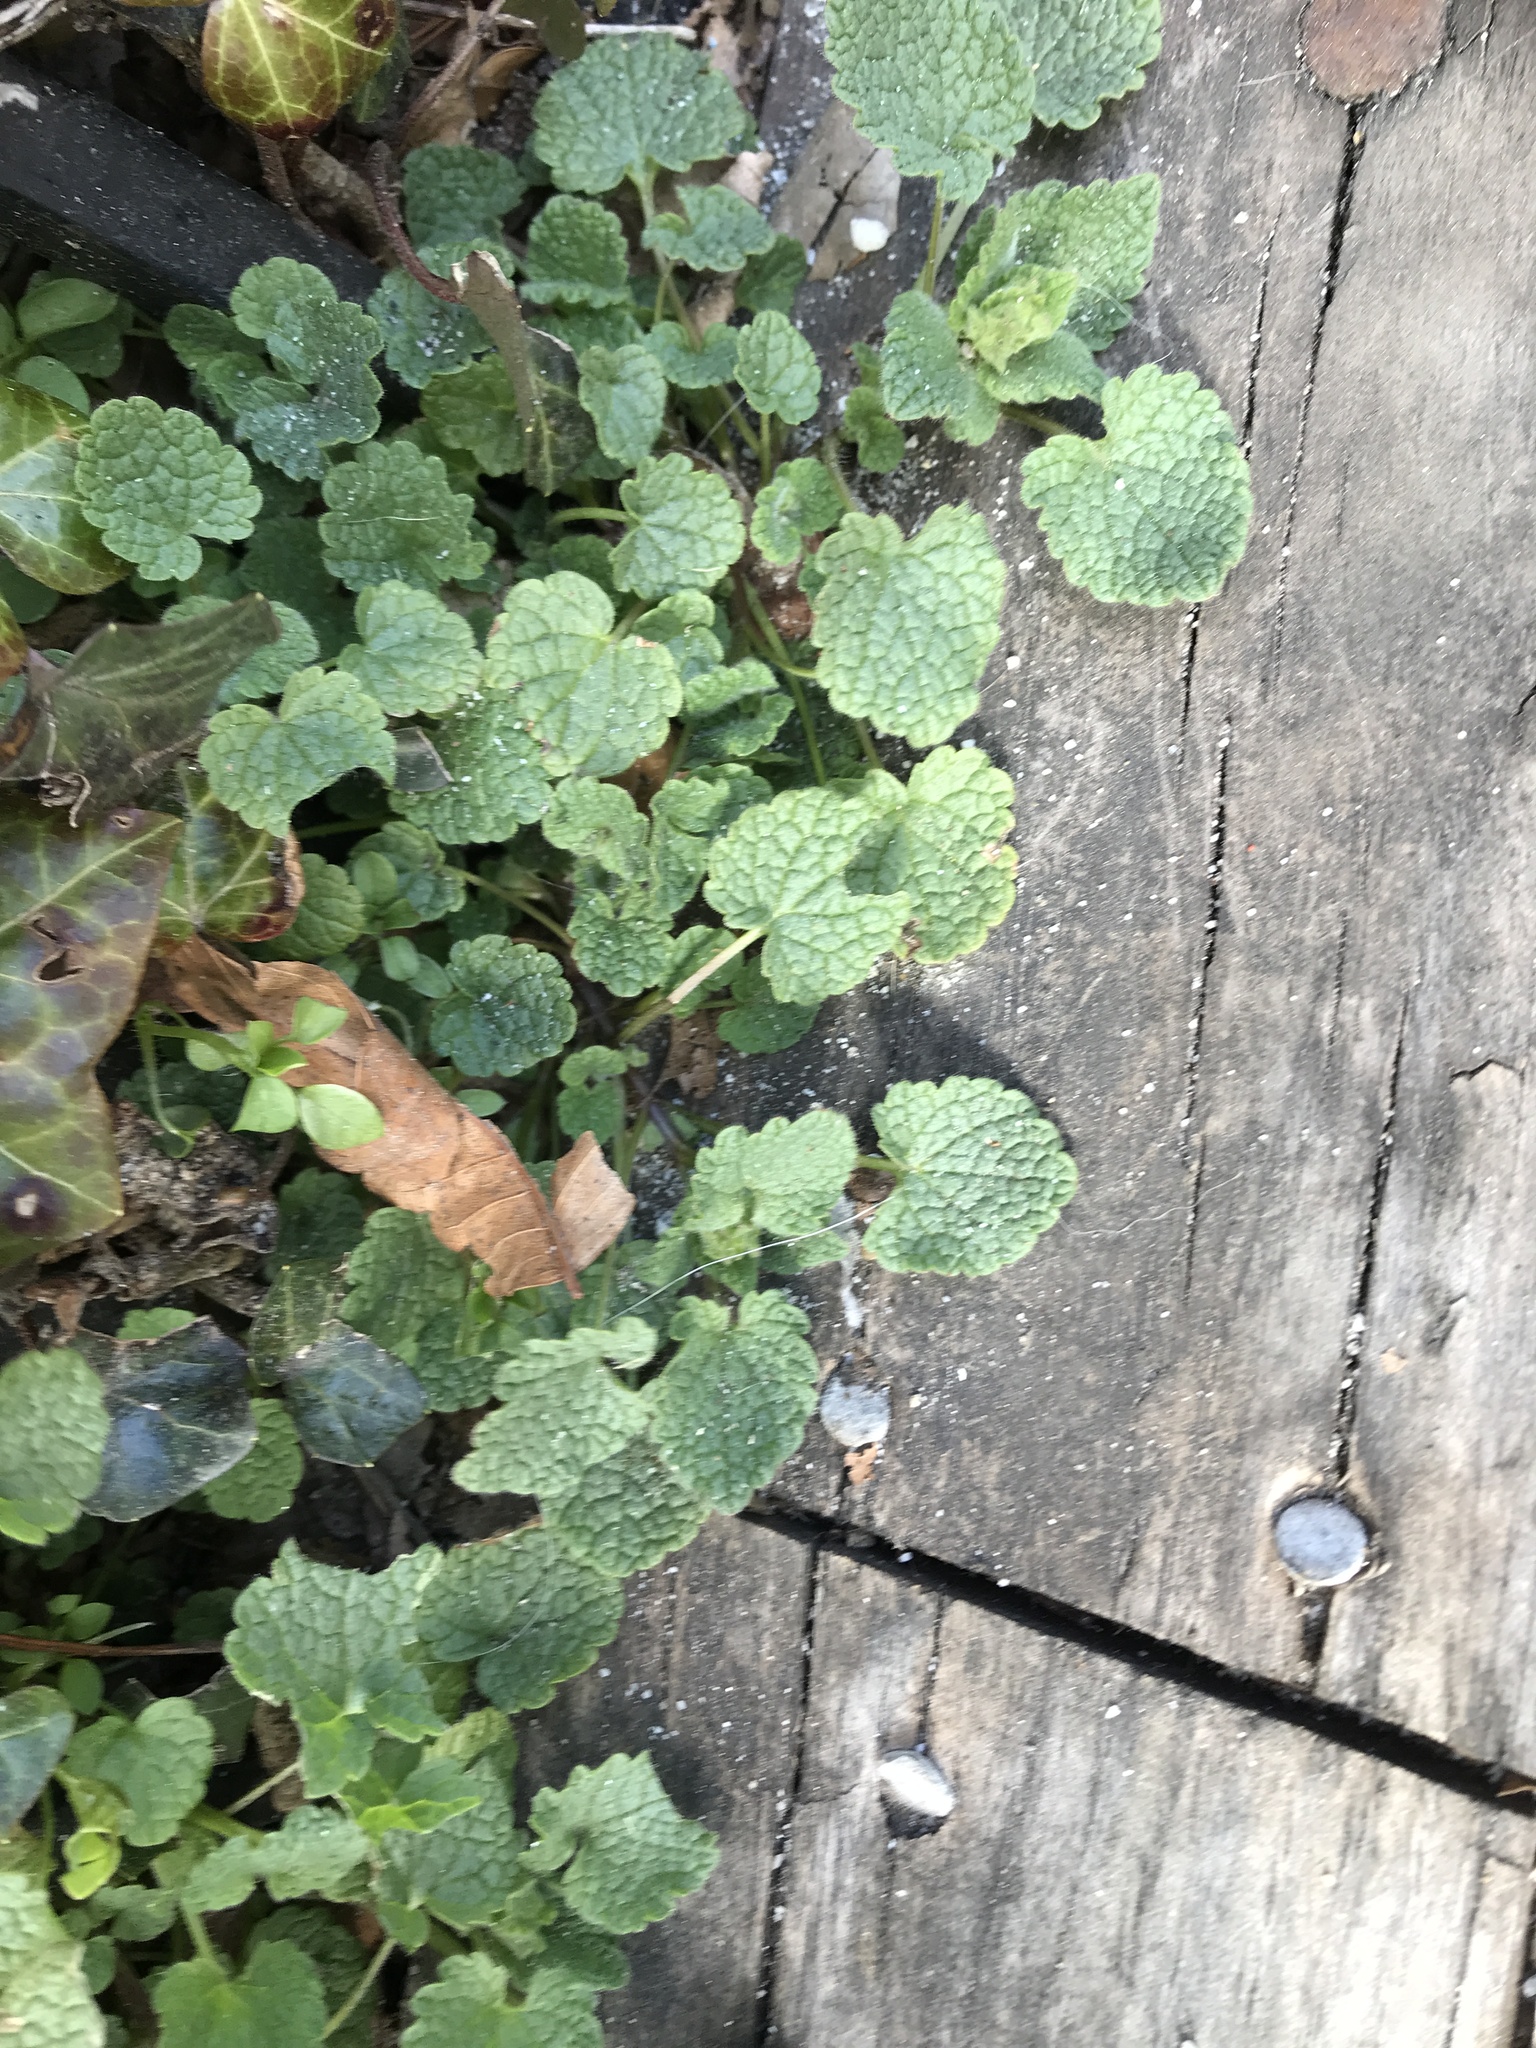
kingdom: Plantae
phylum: Tracheophyta
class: Magnoliopsida
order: Lamiales
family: Lamiaceae
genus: Lamium
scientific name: Lamium purpureum
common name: Red dead-nettle
